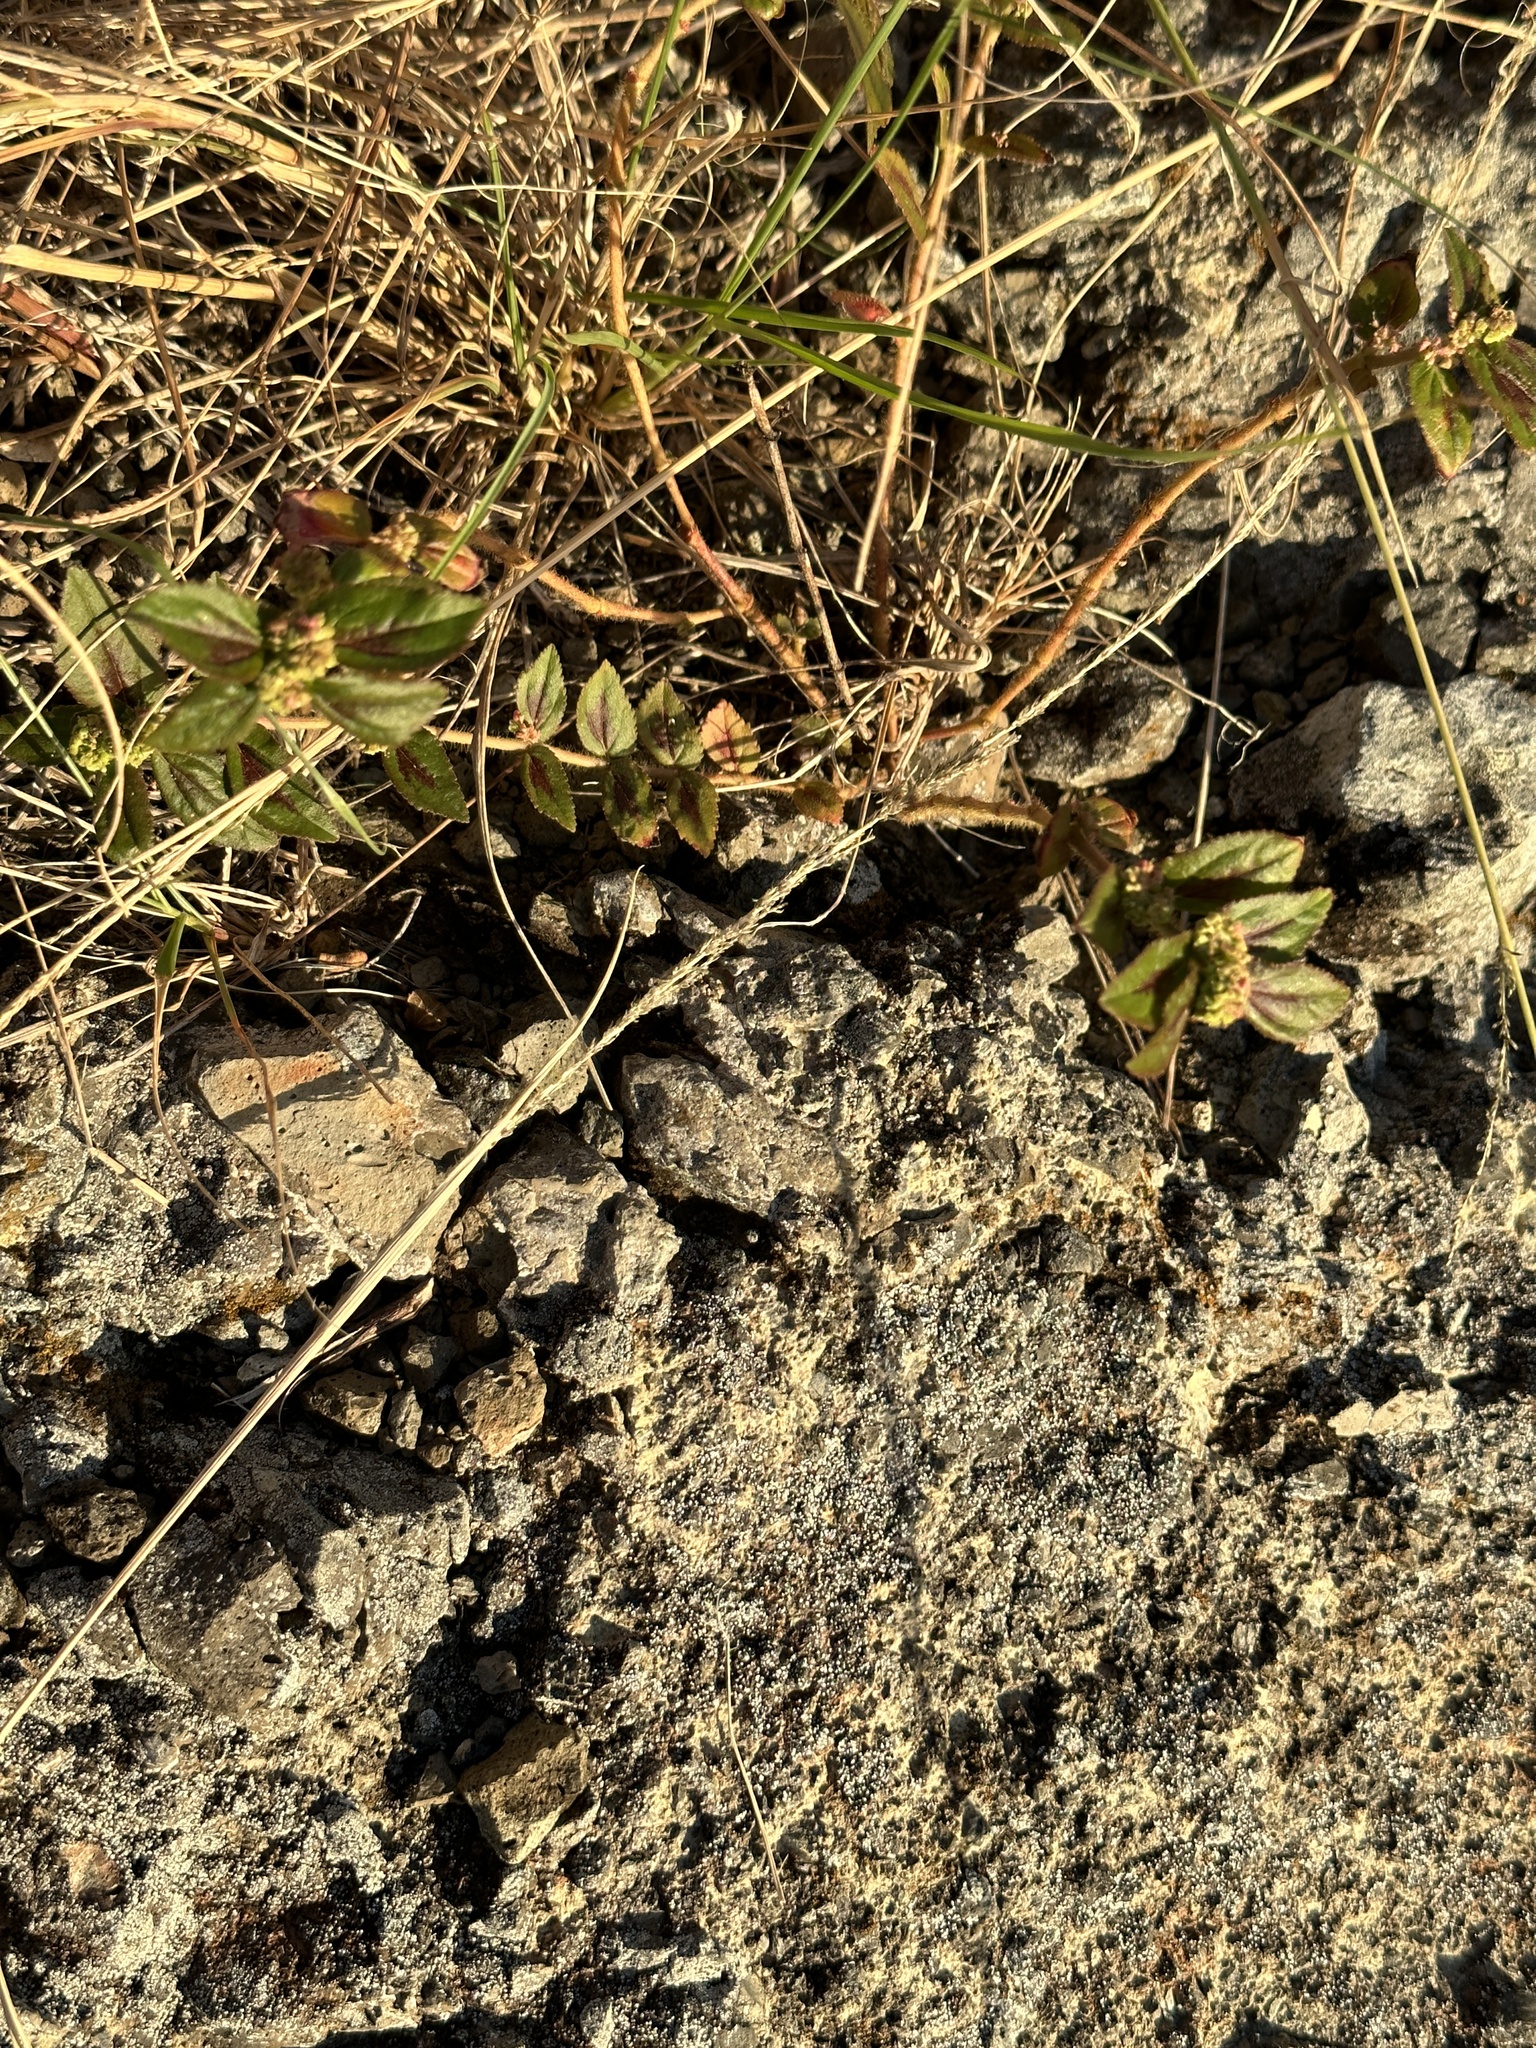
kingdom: Plantae
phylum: Tracheophyta
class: Magnoliopsida
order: Malpighiales
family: Euphorbiaceae
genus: Euphorbia
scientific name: Euphorbia hirta
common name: Pillpod sandmat
